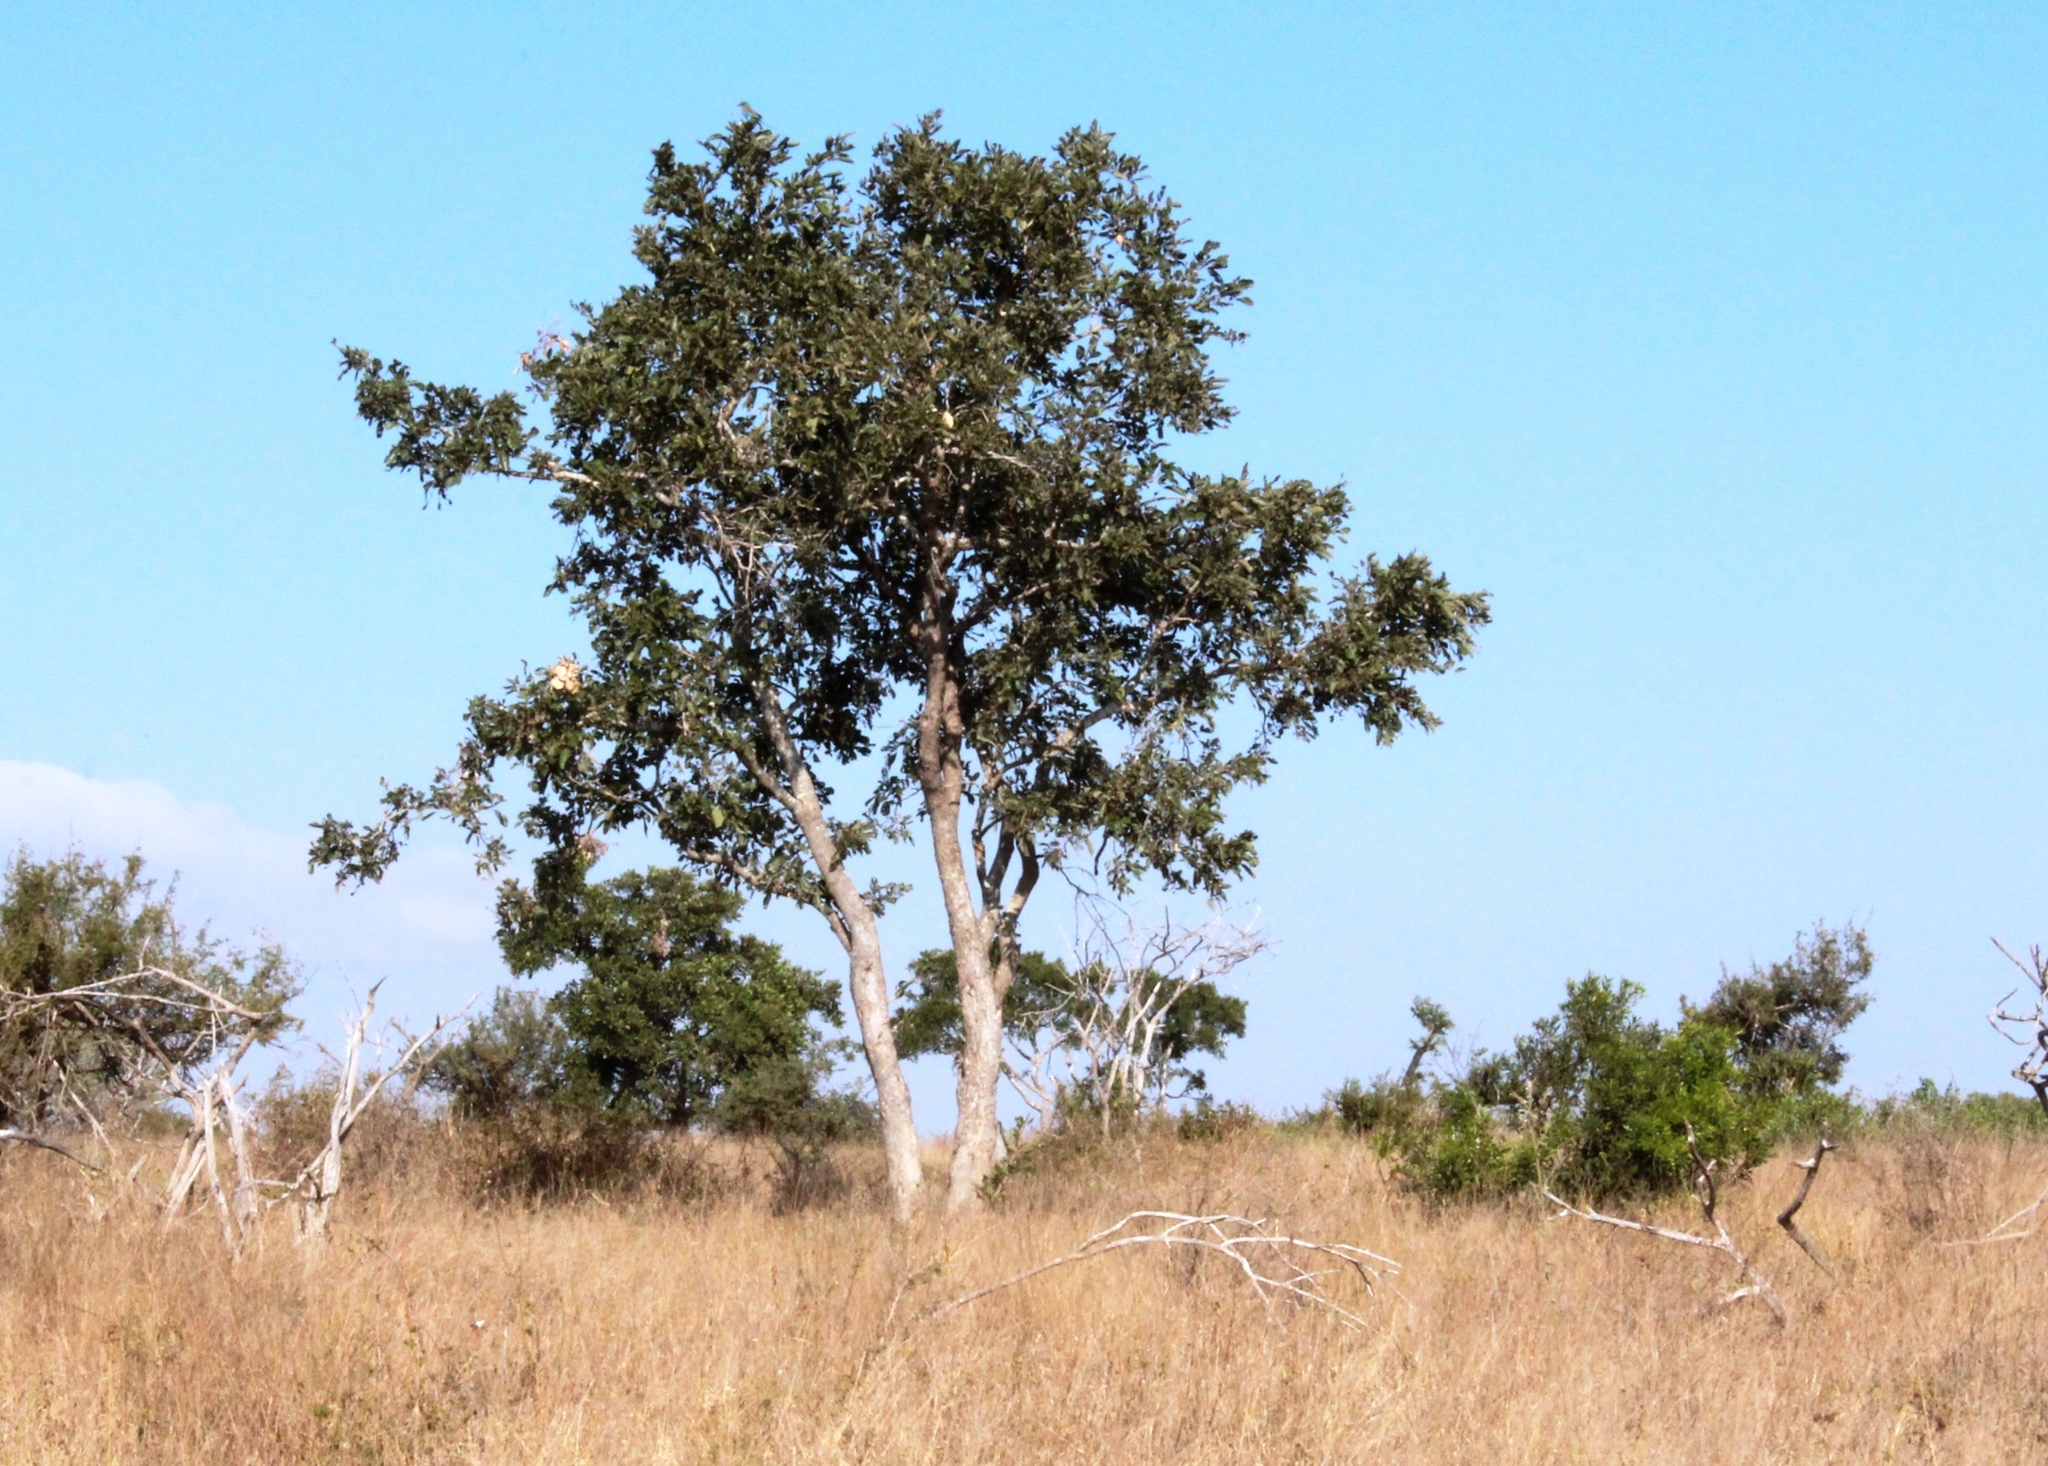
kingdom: Plantae
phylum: Tracheophyta
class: Magnoliopsida
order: Fabales
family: Fabaceae
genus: Philenoptera
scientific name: Philenoptera violacea
